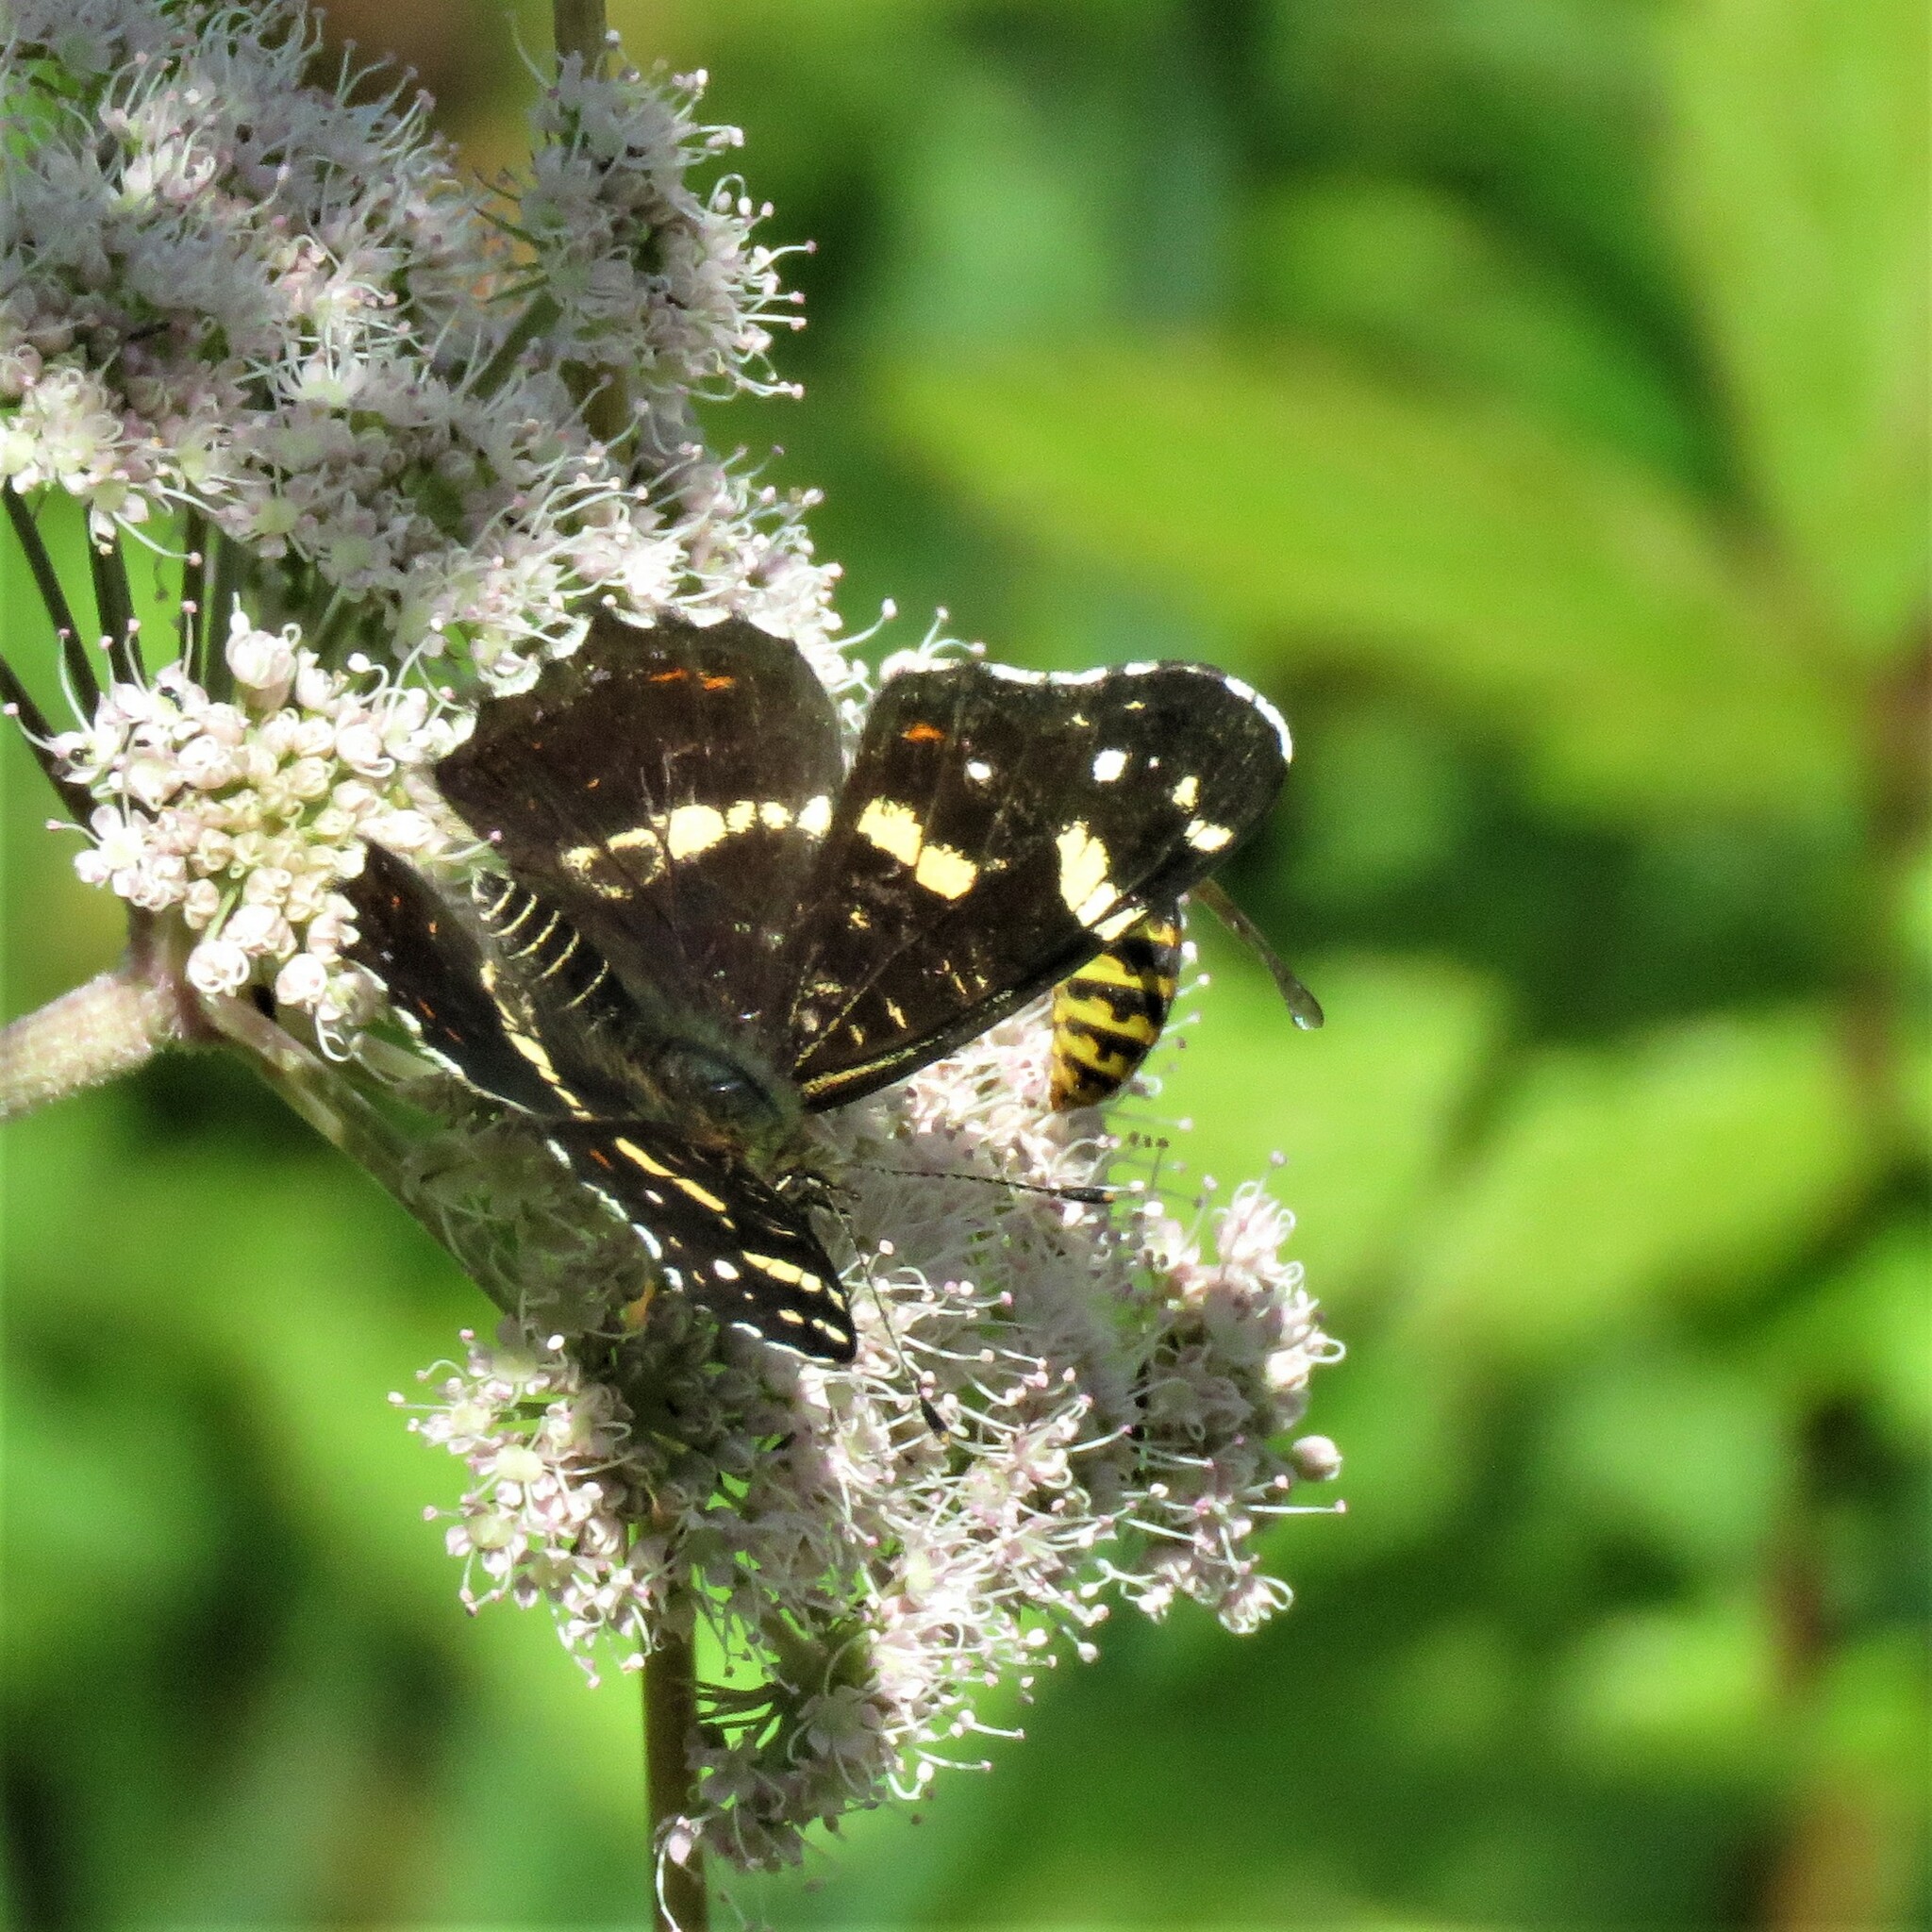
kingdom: Animalia
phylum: Arthropoda
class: Insecta
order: Lepidoptera
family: Nymphalidae
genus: Araschnia
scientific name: Araschnia levana
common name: Map butterfly
